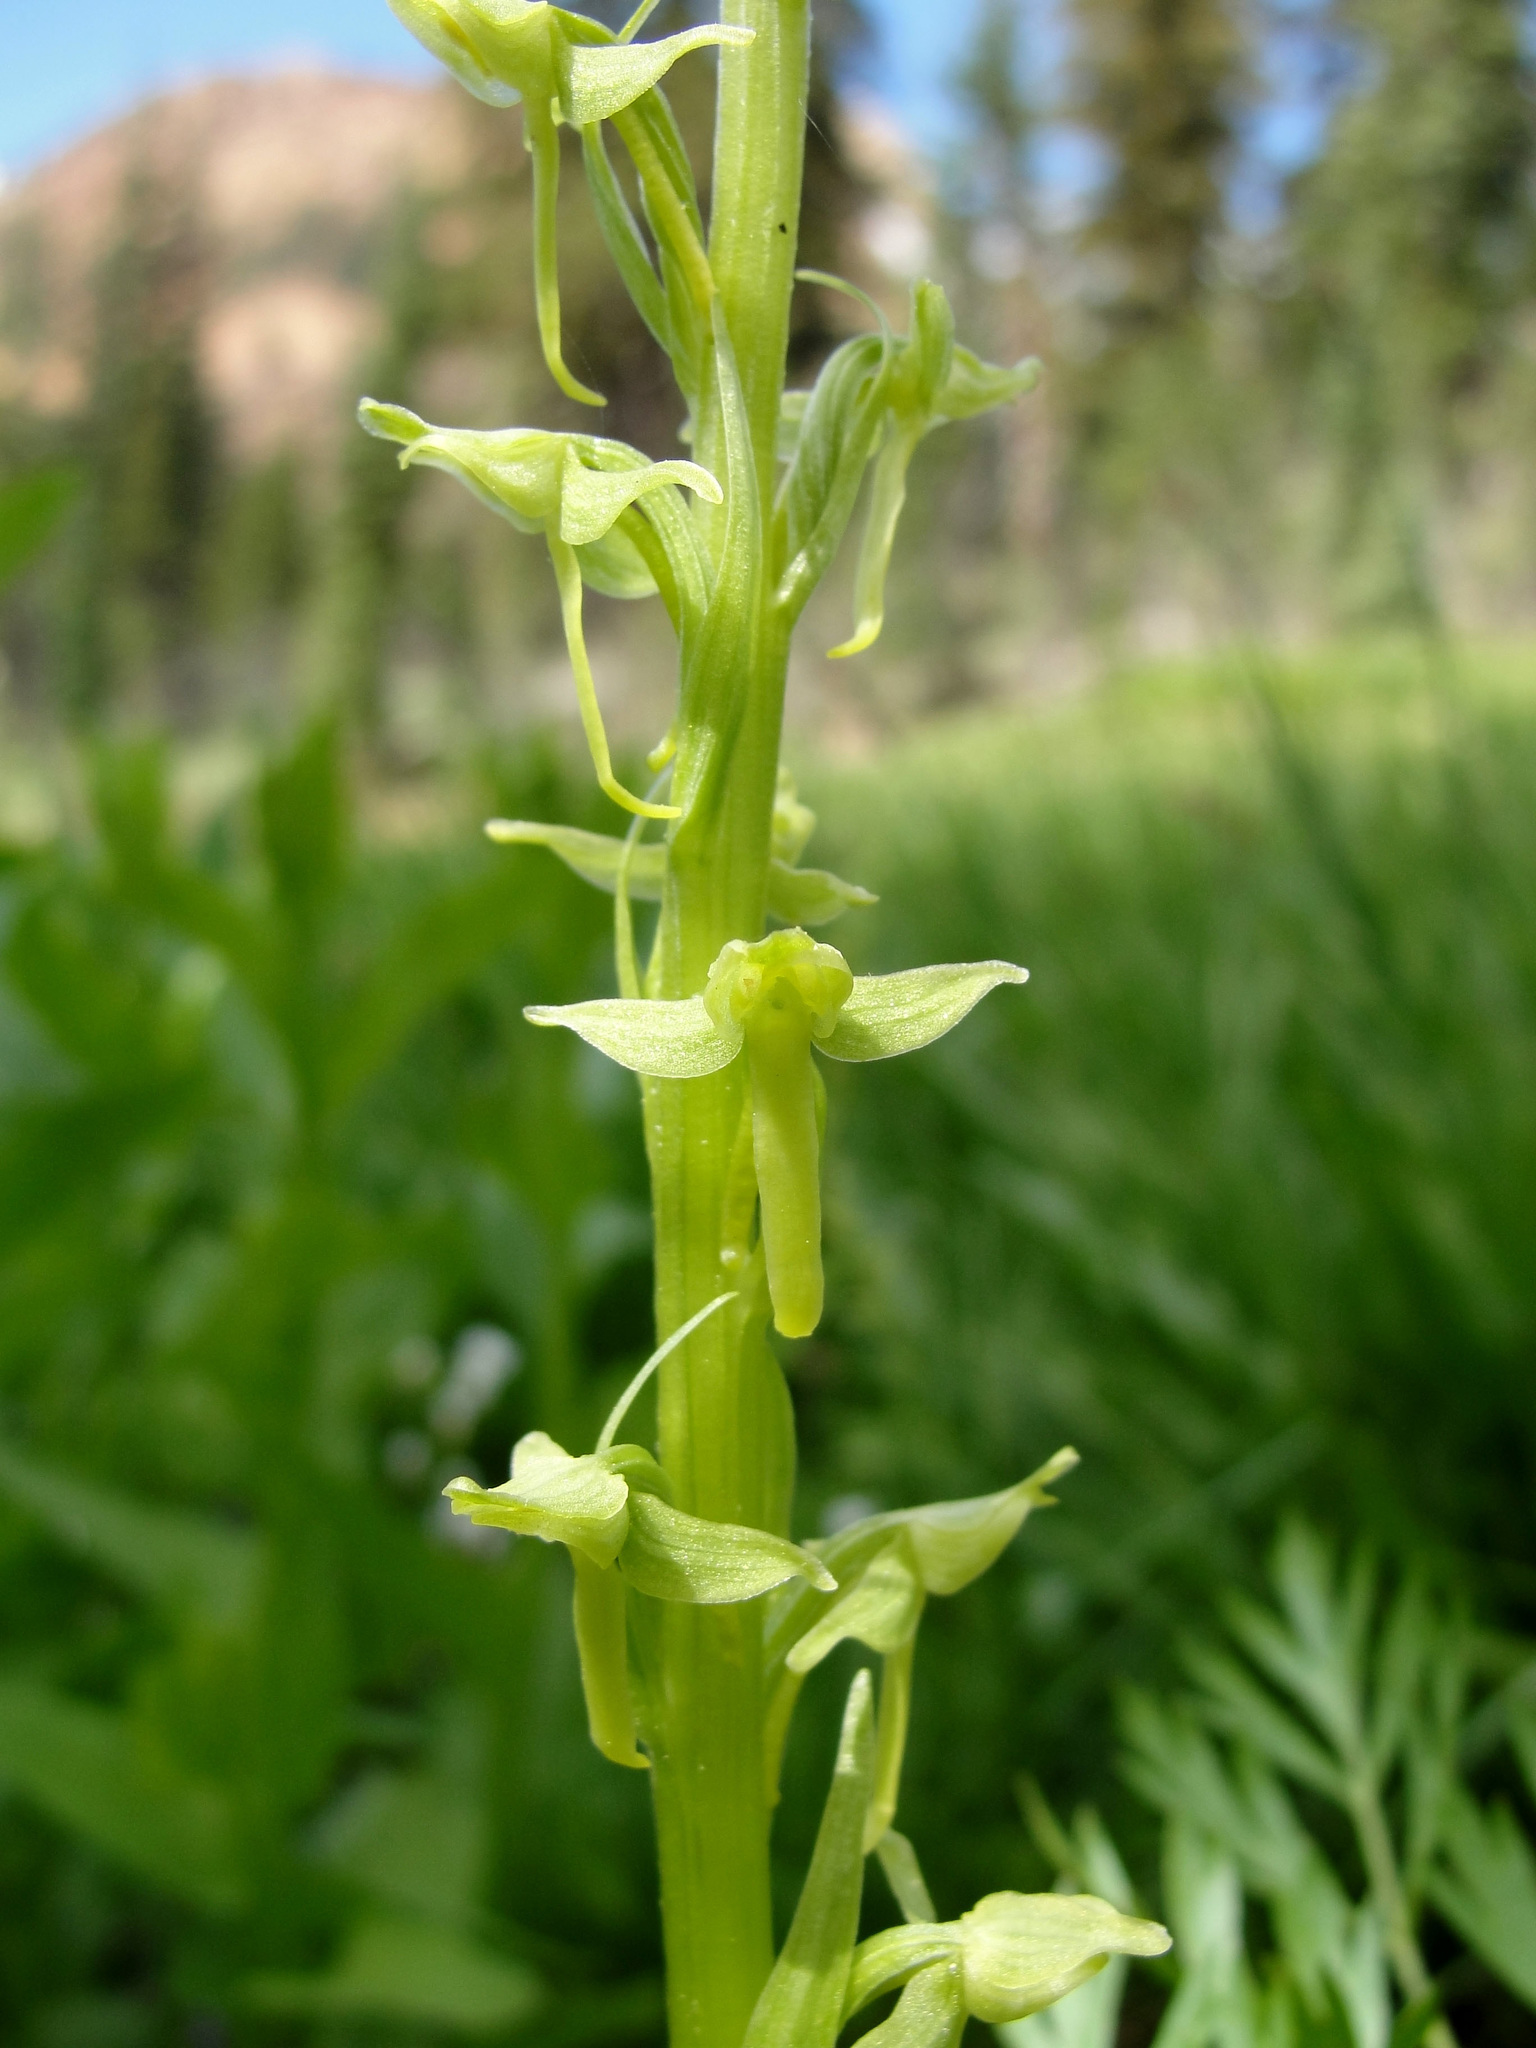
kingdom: Plantae
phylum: Tracheophyta
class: Liliopsida
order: Asparagales
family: Orchidaceae
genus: Platanthera
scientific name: Platanthera sparsiflora
